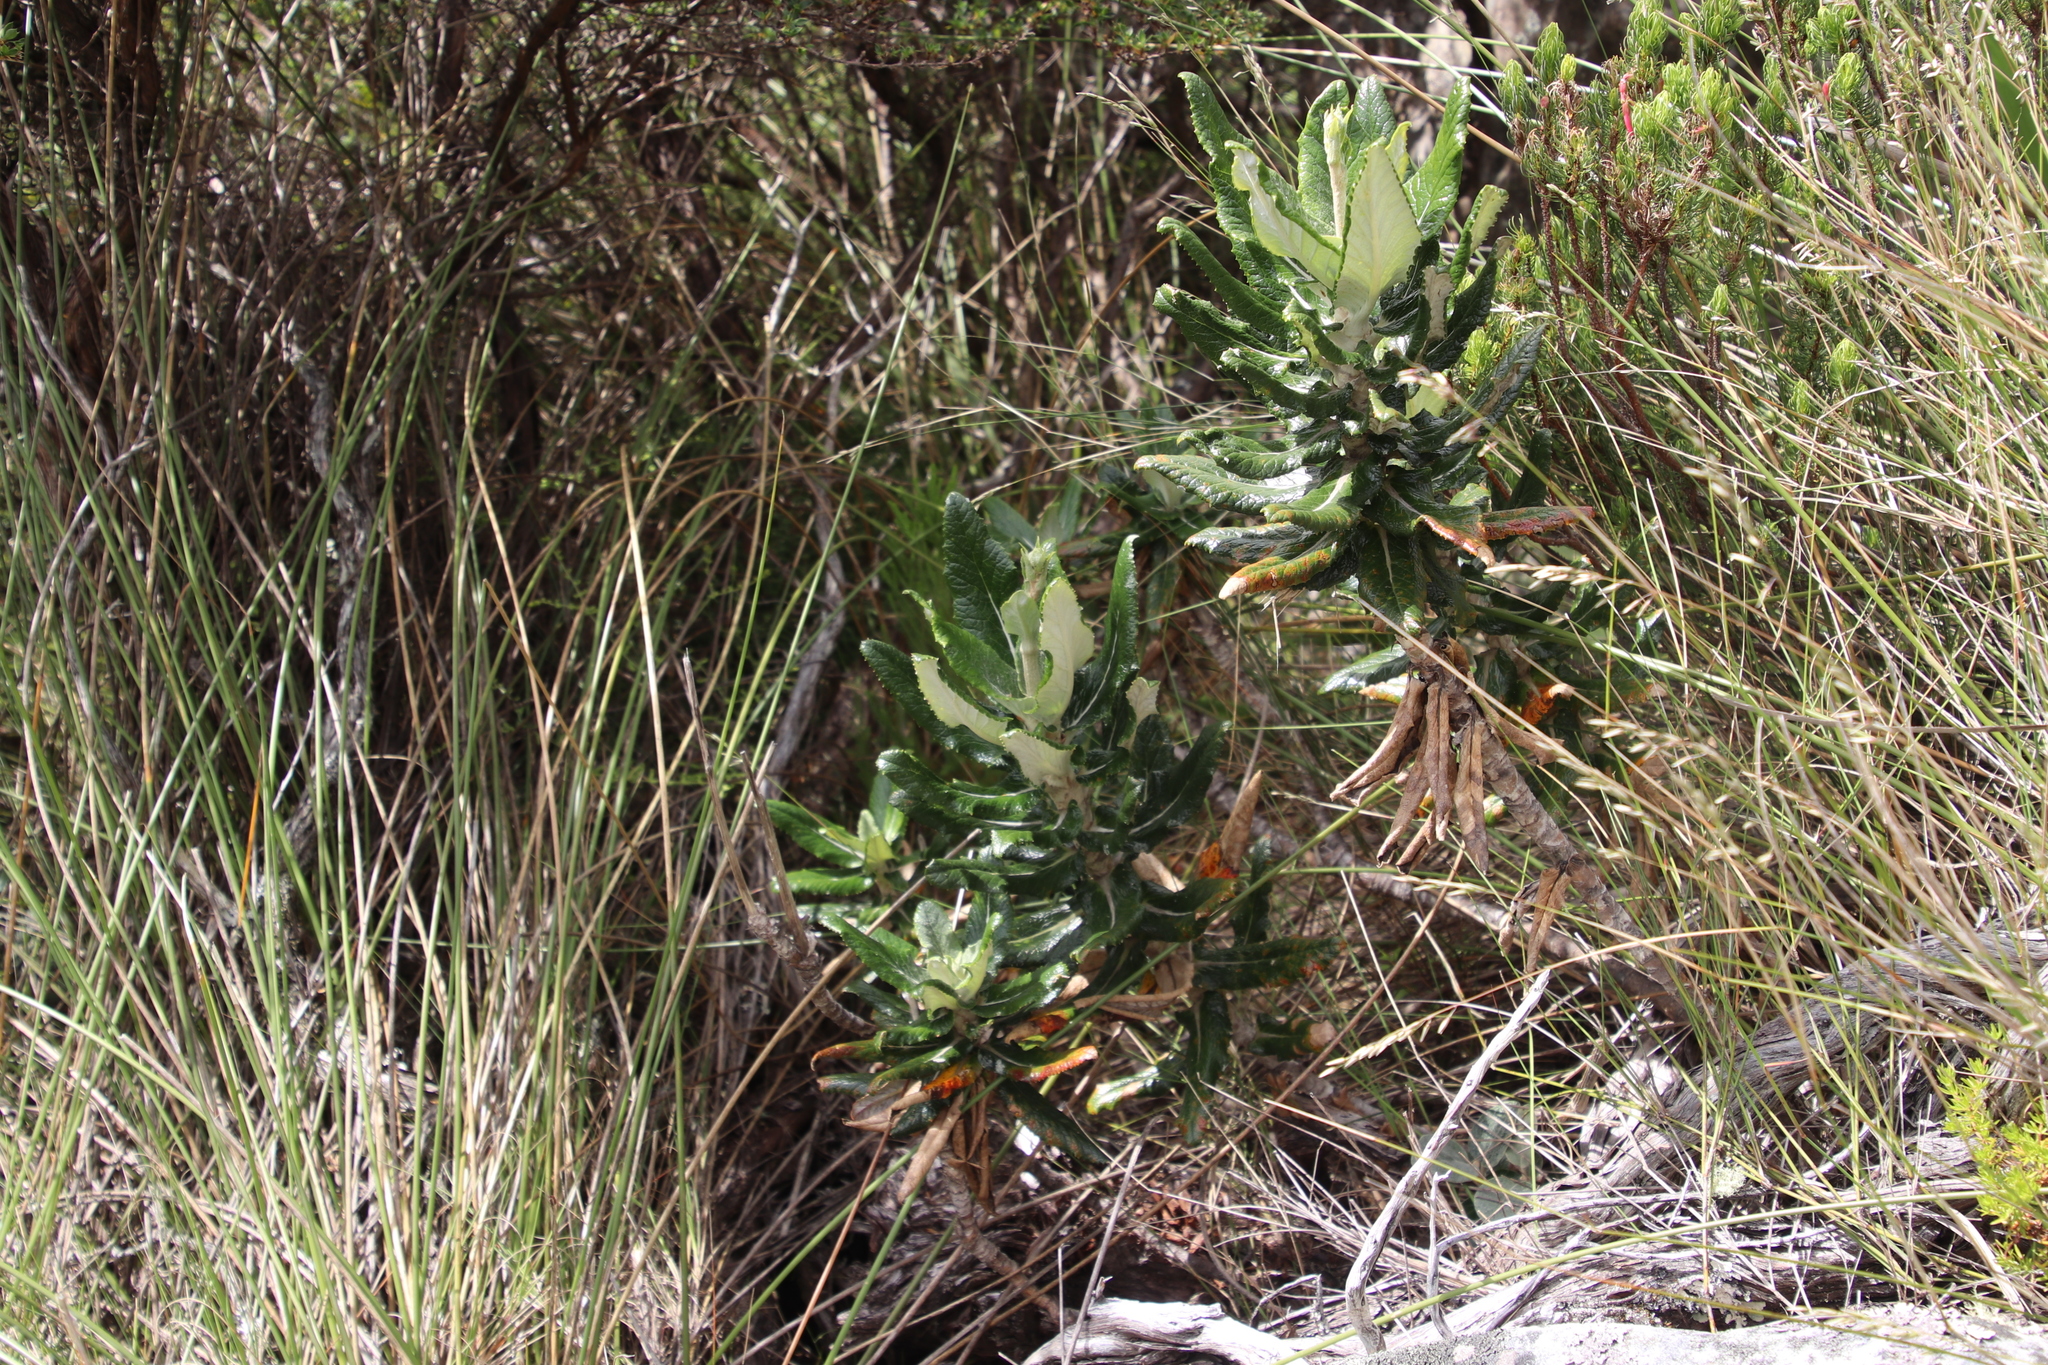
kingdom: Plantae
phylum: Tracheophyta
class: Magnoliopsida
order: Apiales
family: Apiaceae
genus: Hermas
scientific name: Hermas villosa
